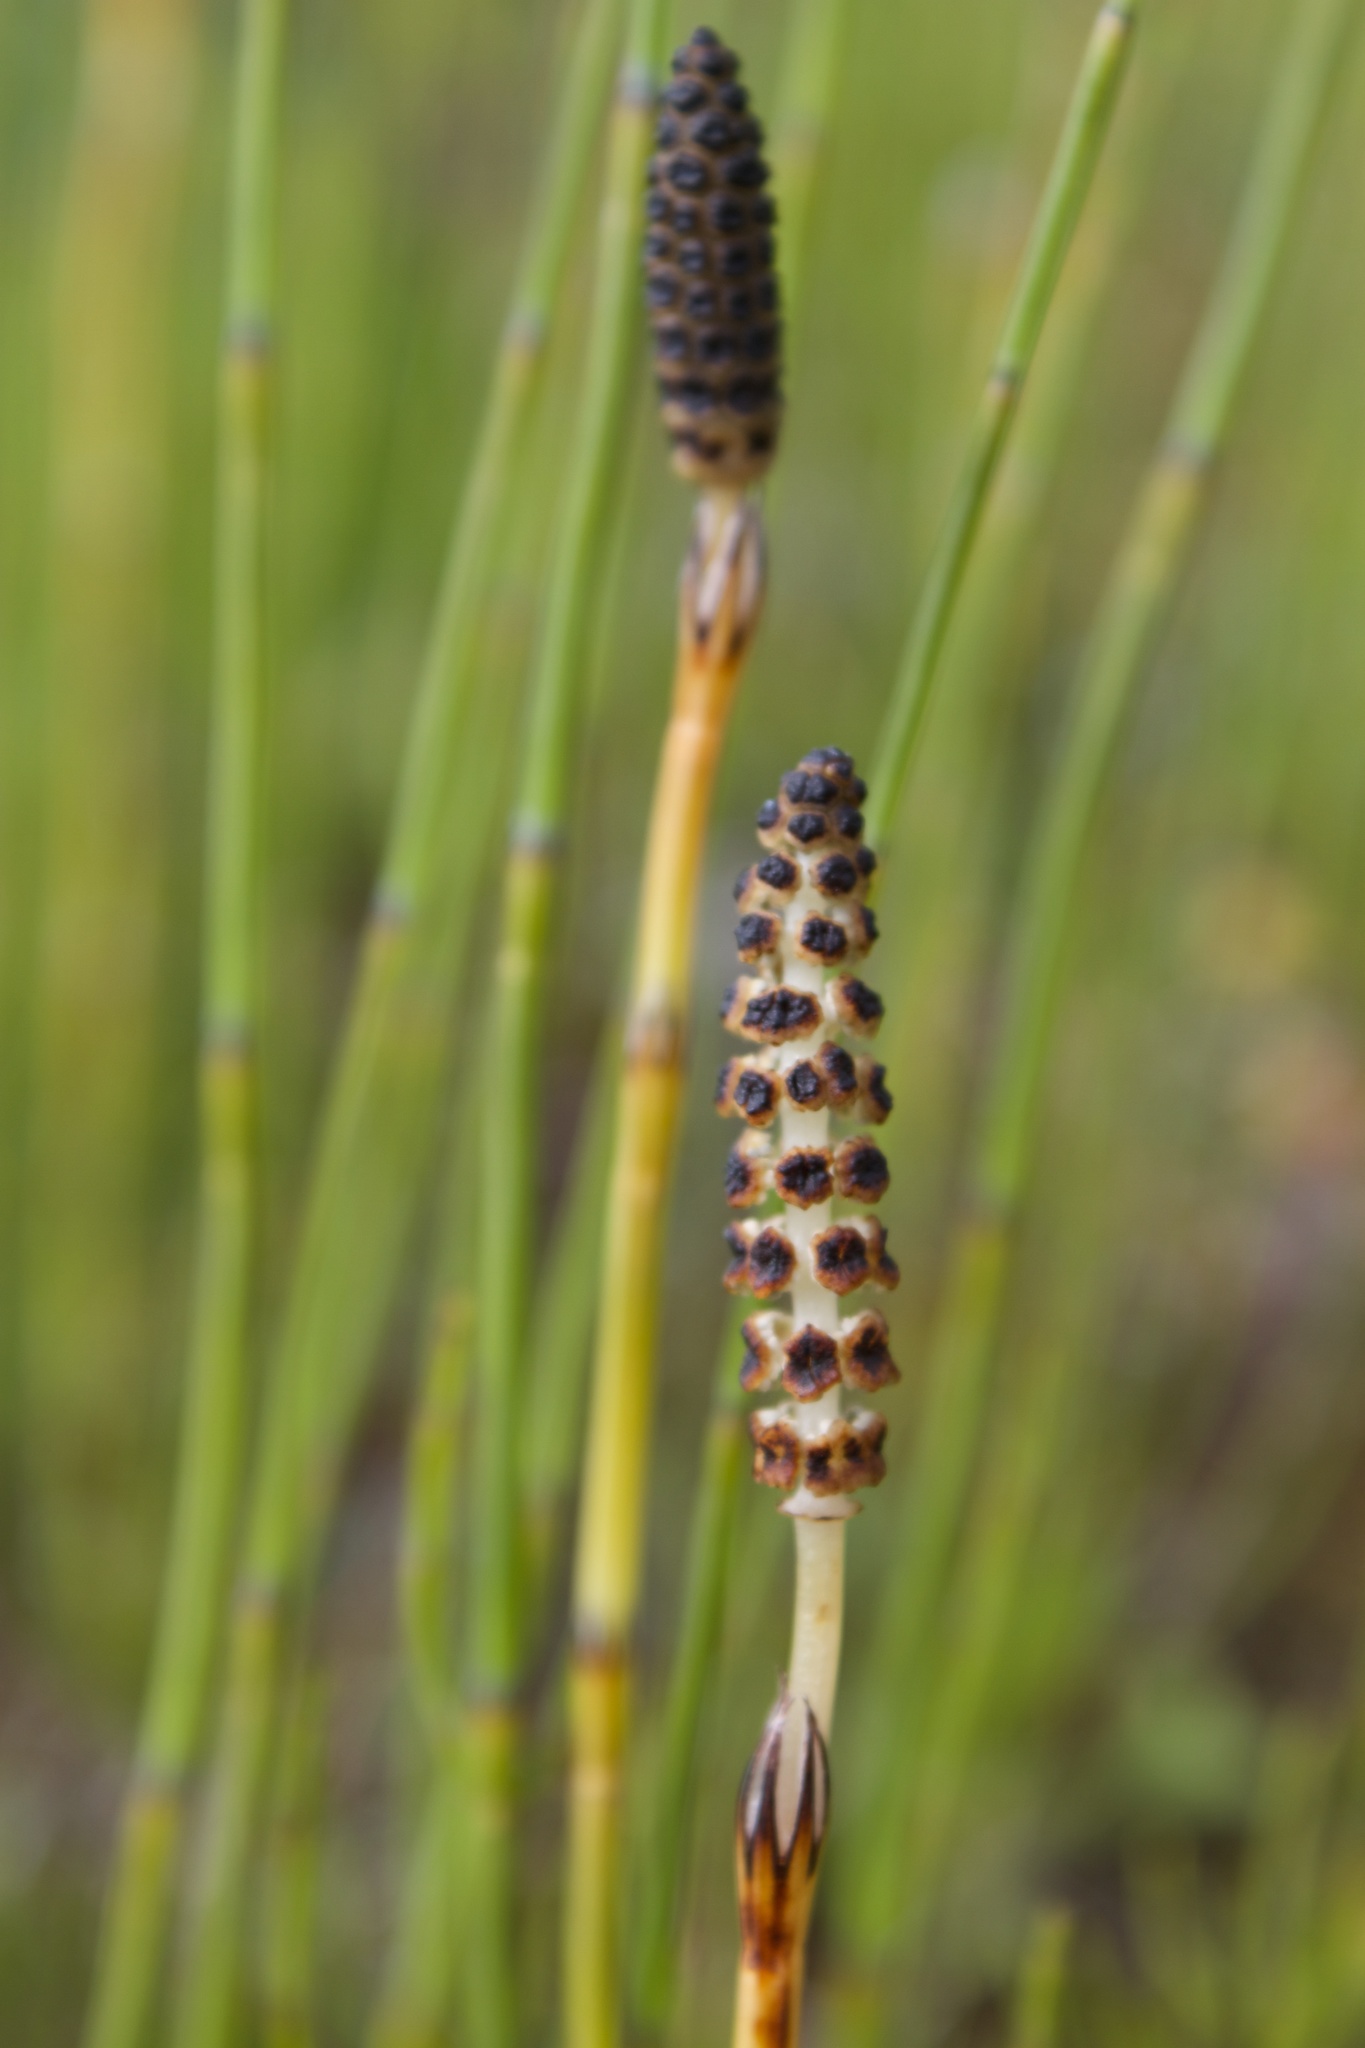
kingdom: Plantae
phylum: Tracheophyta
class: Polypodiopsida
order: Equisetales
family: Equisetaceae
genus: Equisetum
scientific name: Equisetum palustre
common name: Marsh horsetail
